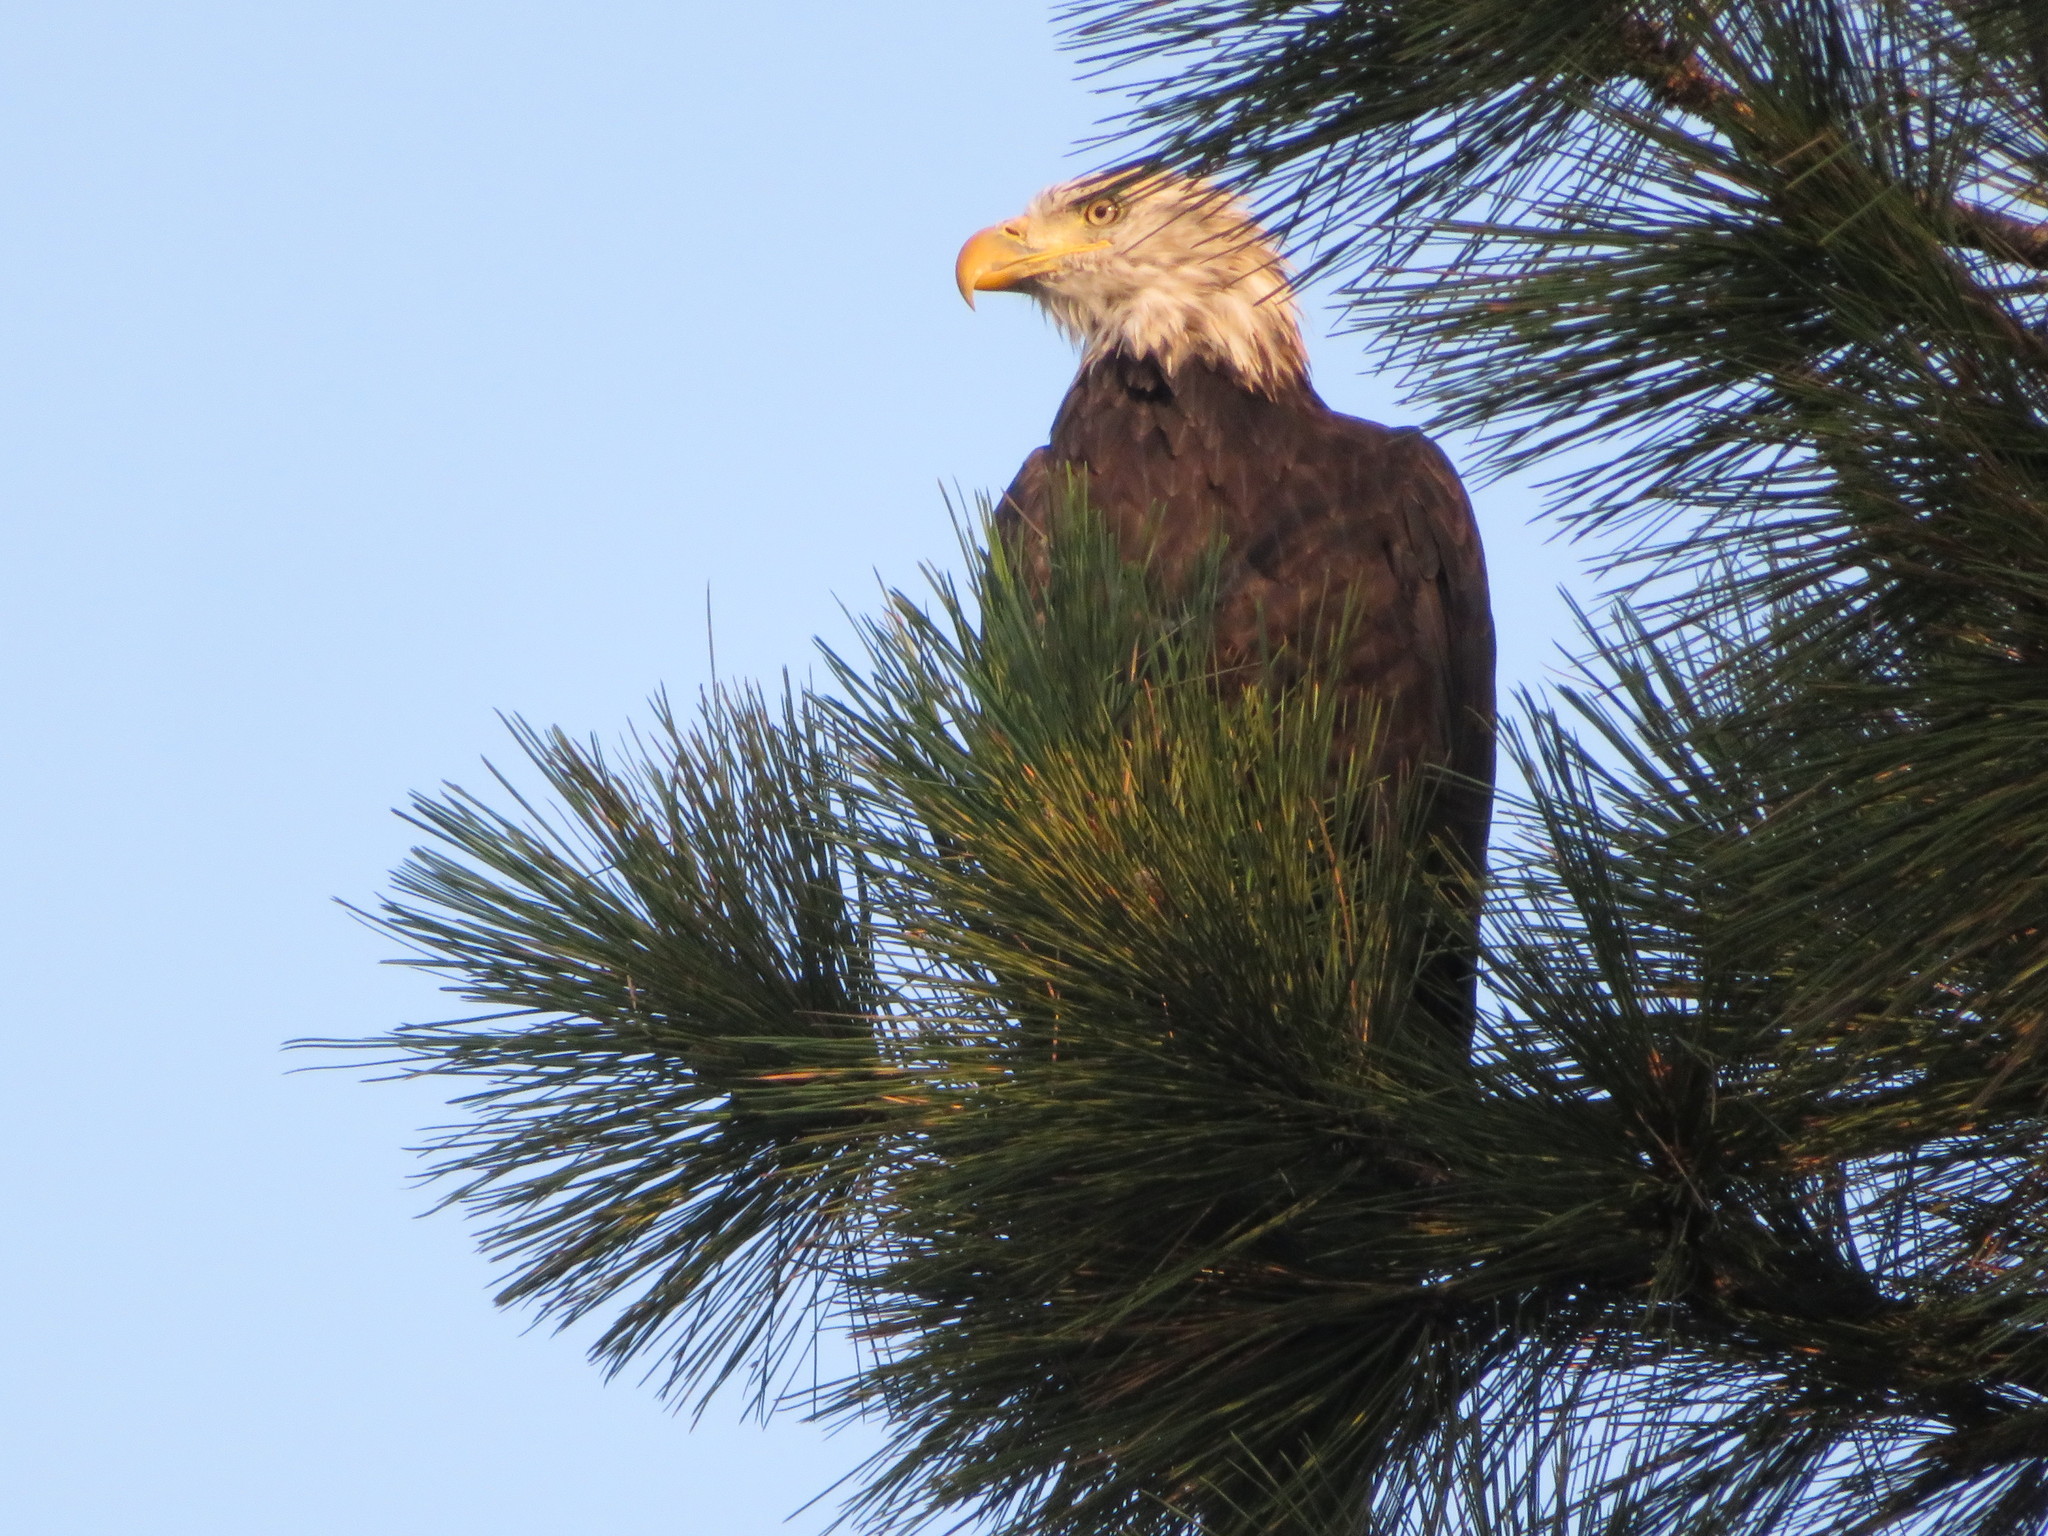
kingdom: Animalia
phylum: Chordata
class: Aves
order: Accipitriformes
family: Accipitridae
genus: Haliaeetus
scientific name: Haliaeetus leucocephalus
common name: Bald eagle
